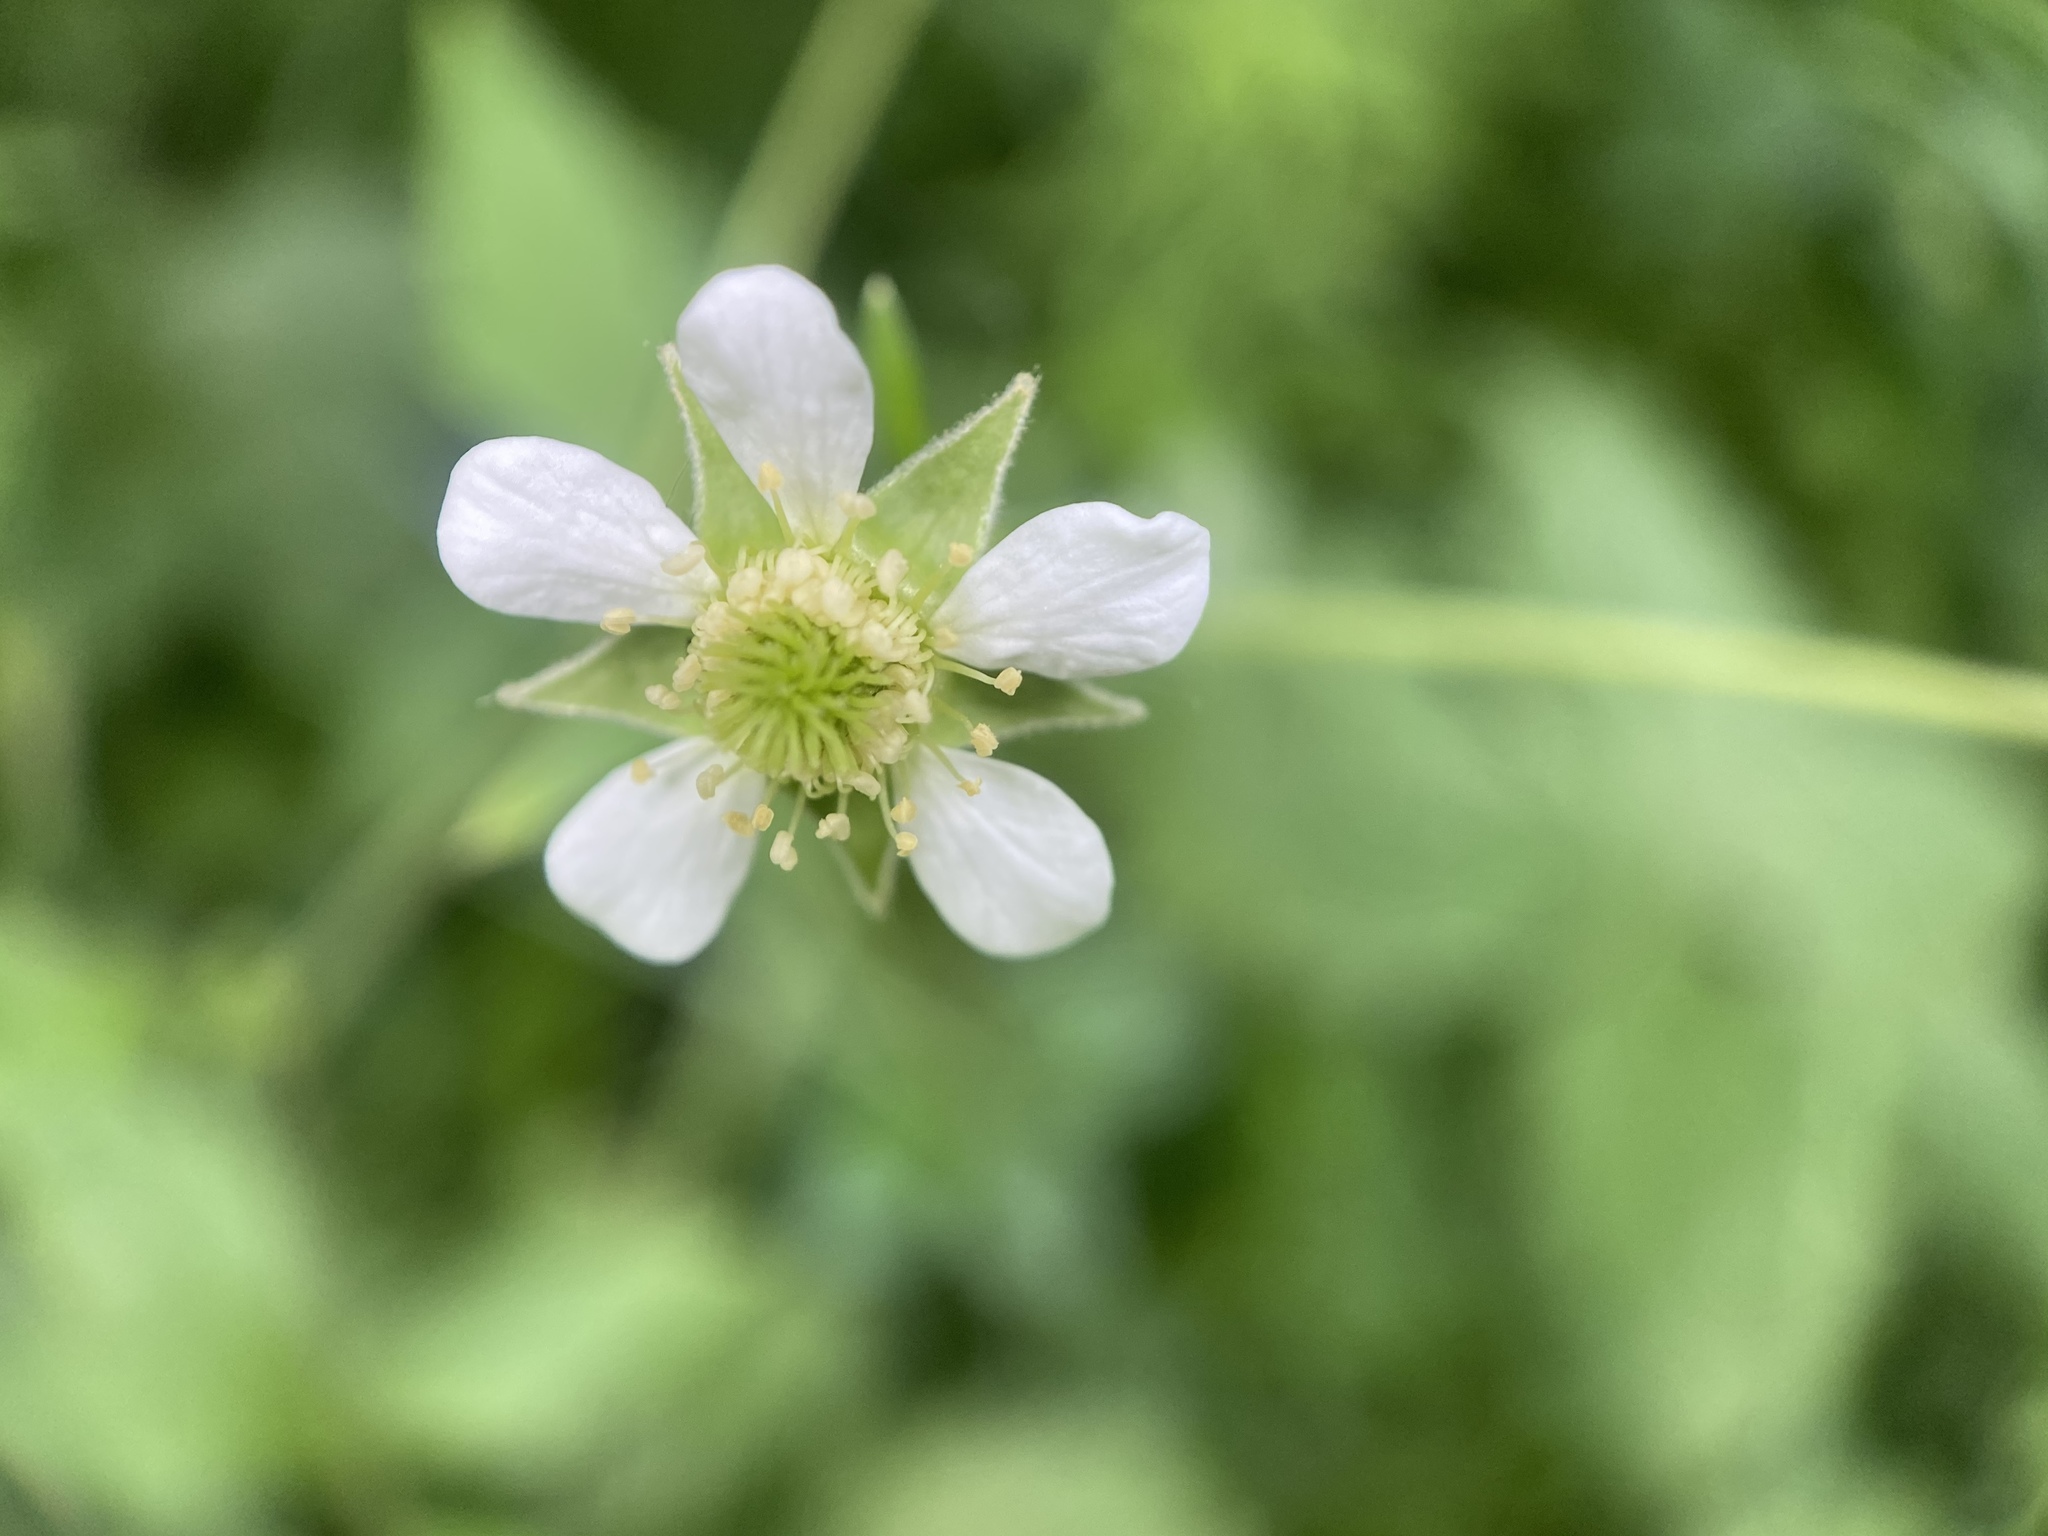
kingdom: Plantae
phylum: Tracheophyta
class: Magnoliopsida
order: Rosales
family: Rosaceae
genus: Geum
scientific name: Geum canadense
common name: White avens
